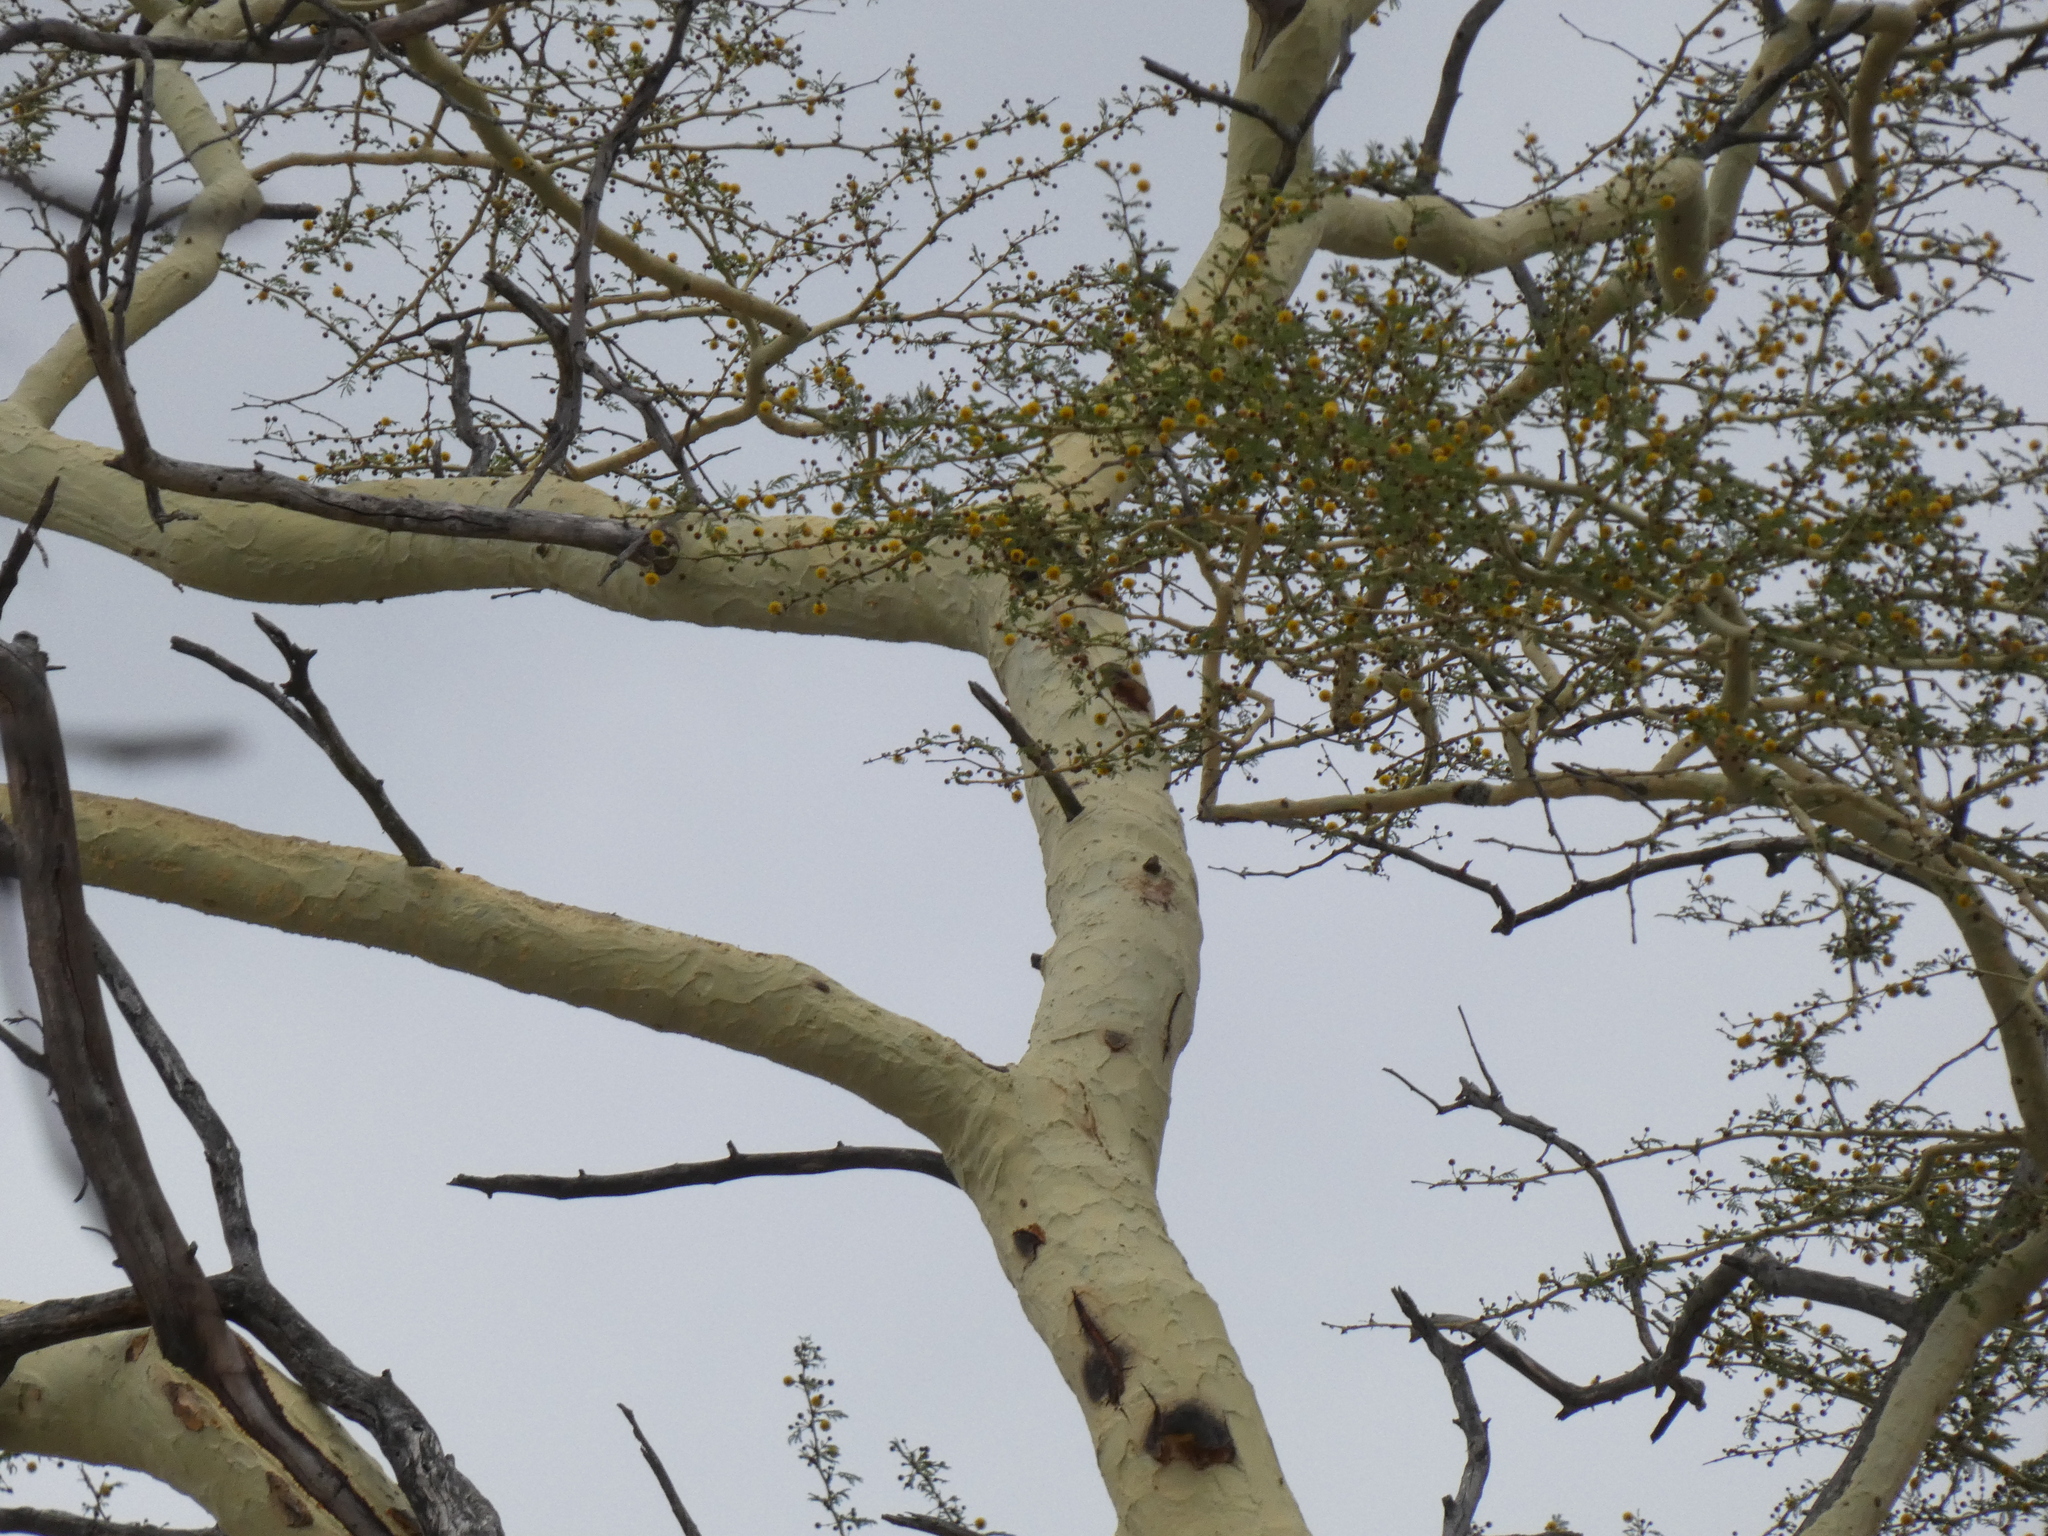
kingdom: Plantae
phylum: Tracheophyta
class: Magnoliopsida
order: Fabales
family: Fabaceae
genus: Vachellia
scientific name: Vachellia xanthophloea
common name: Fever tree
